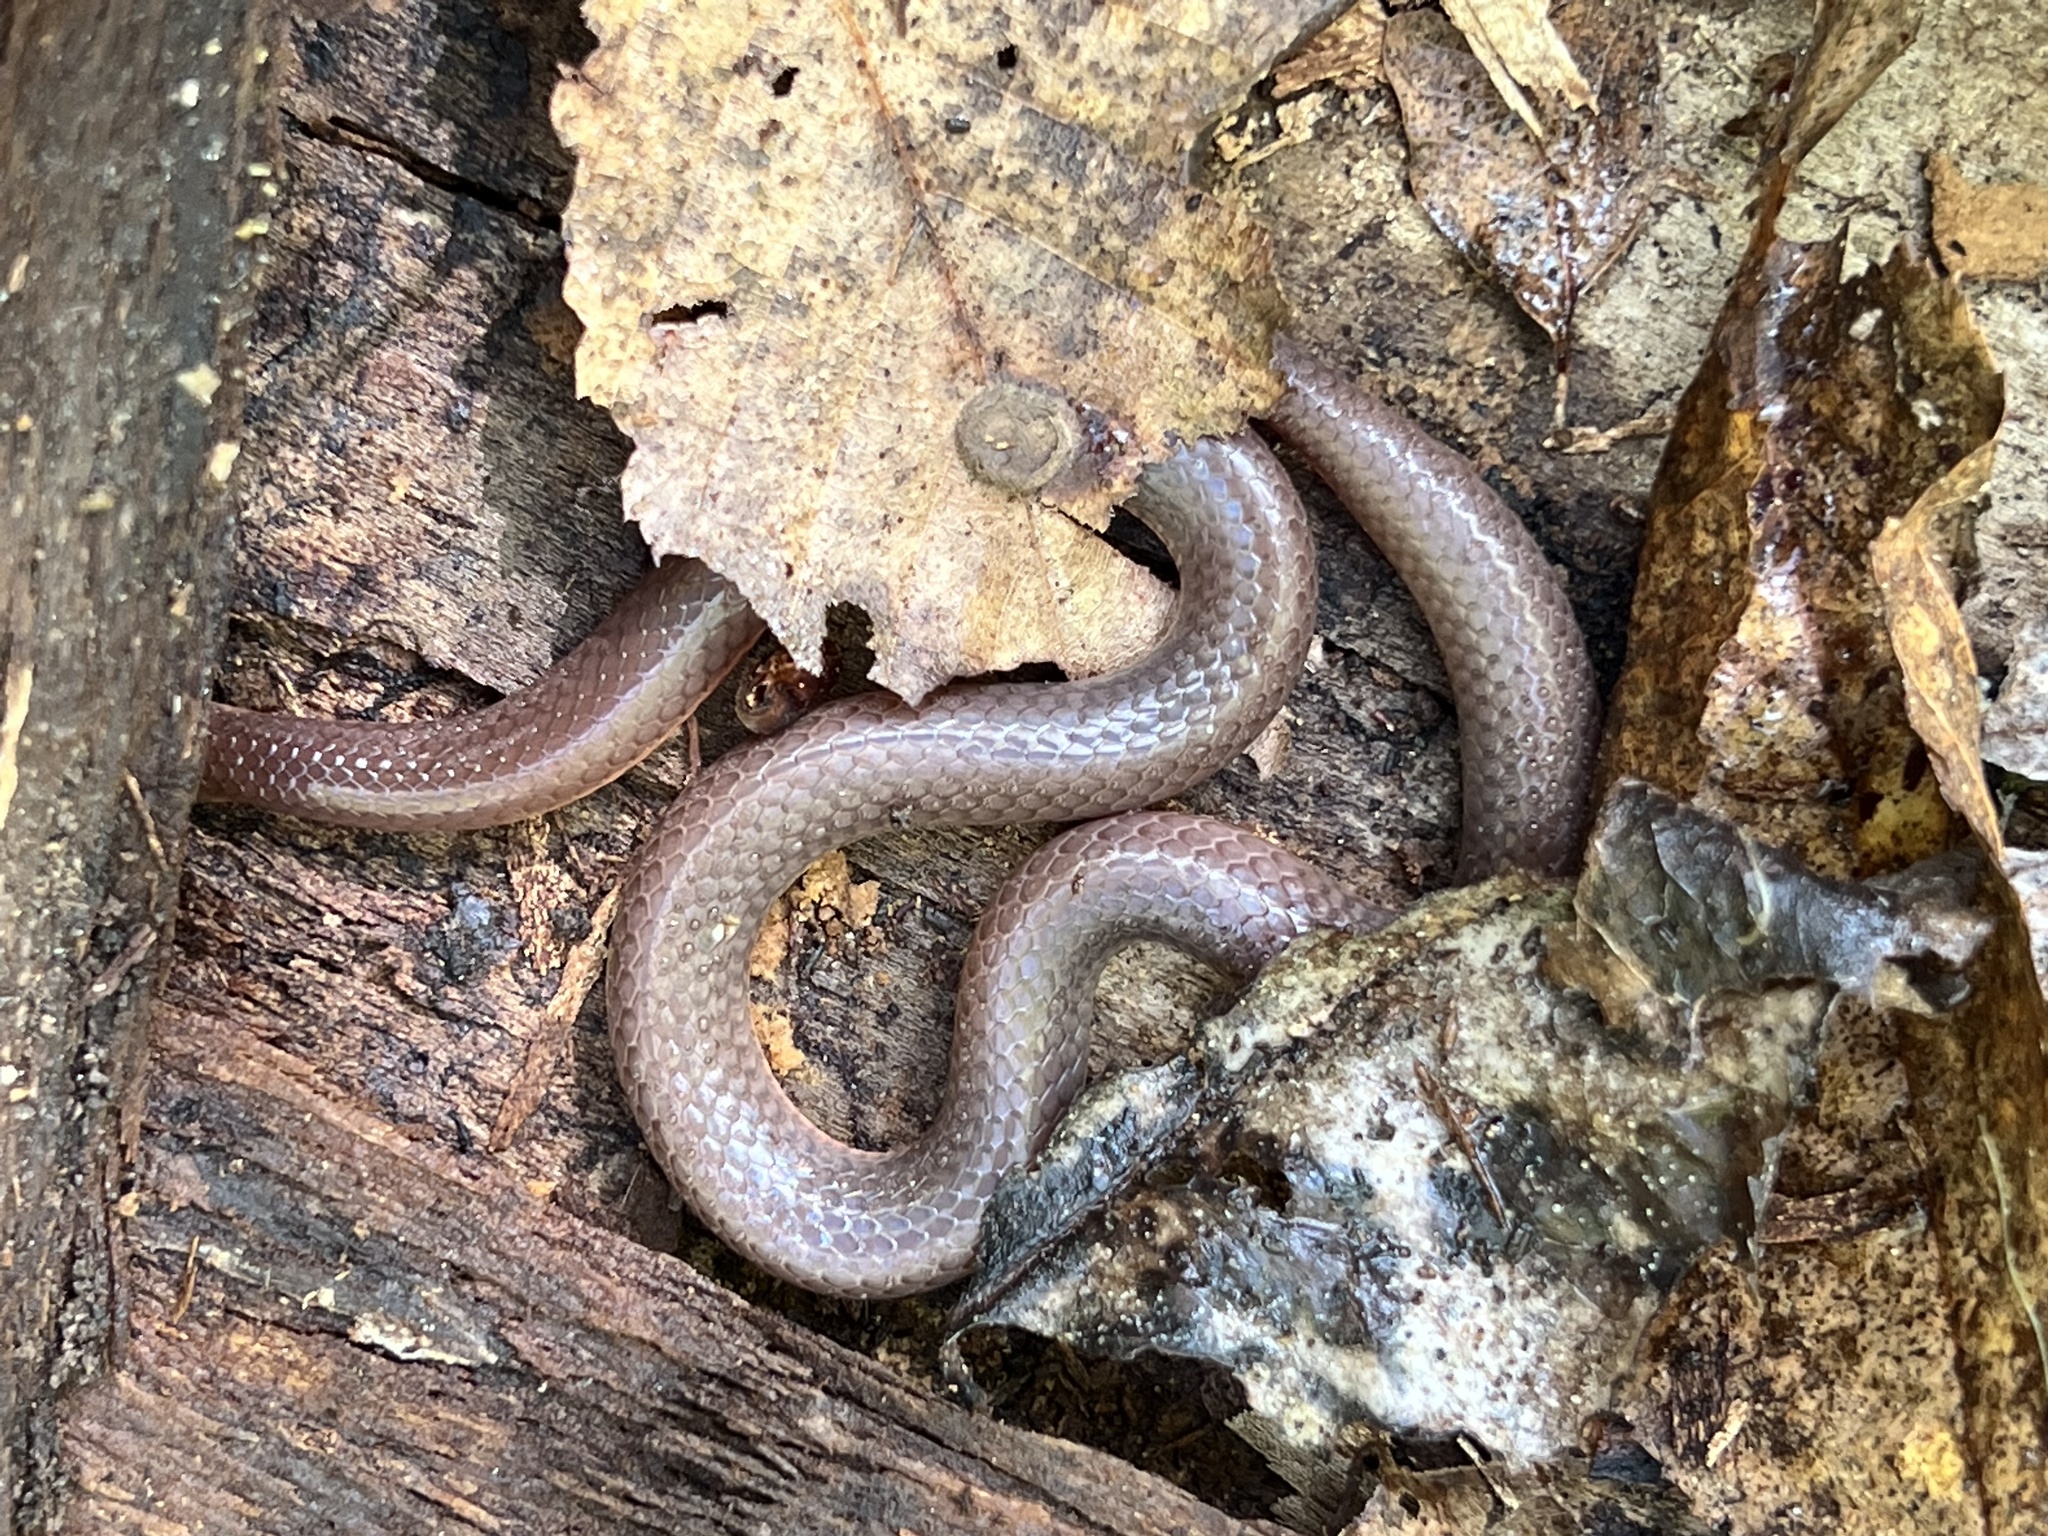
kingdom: Animalia
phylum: Chordata
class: Squamata
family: Colubridae
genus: Carphophis
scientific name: Carphophis amoenus
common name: Eastern worm snake
